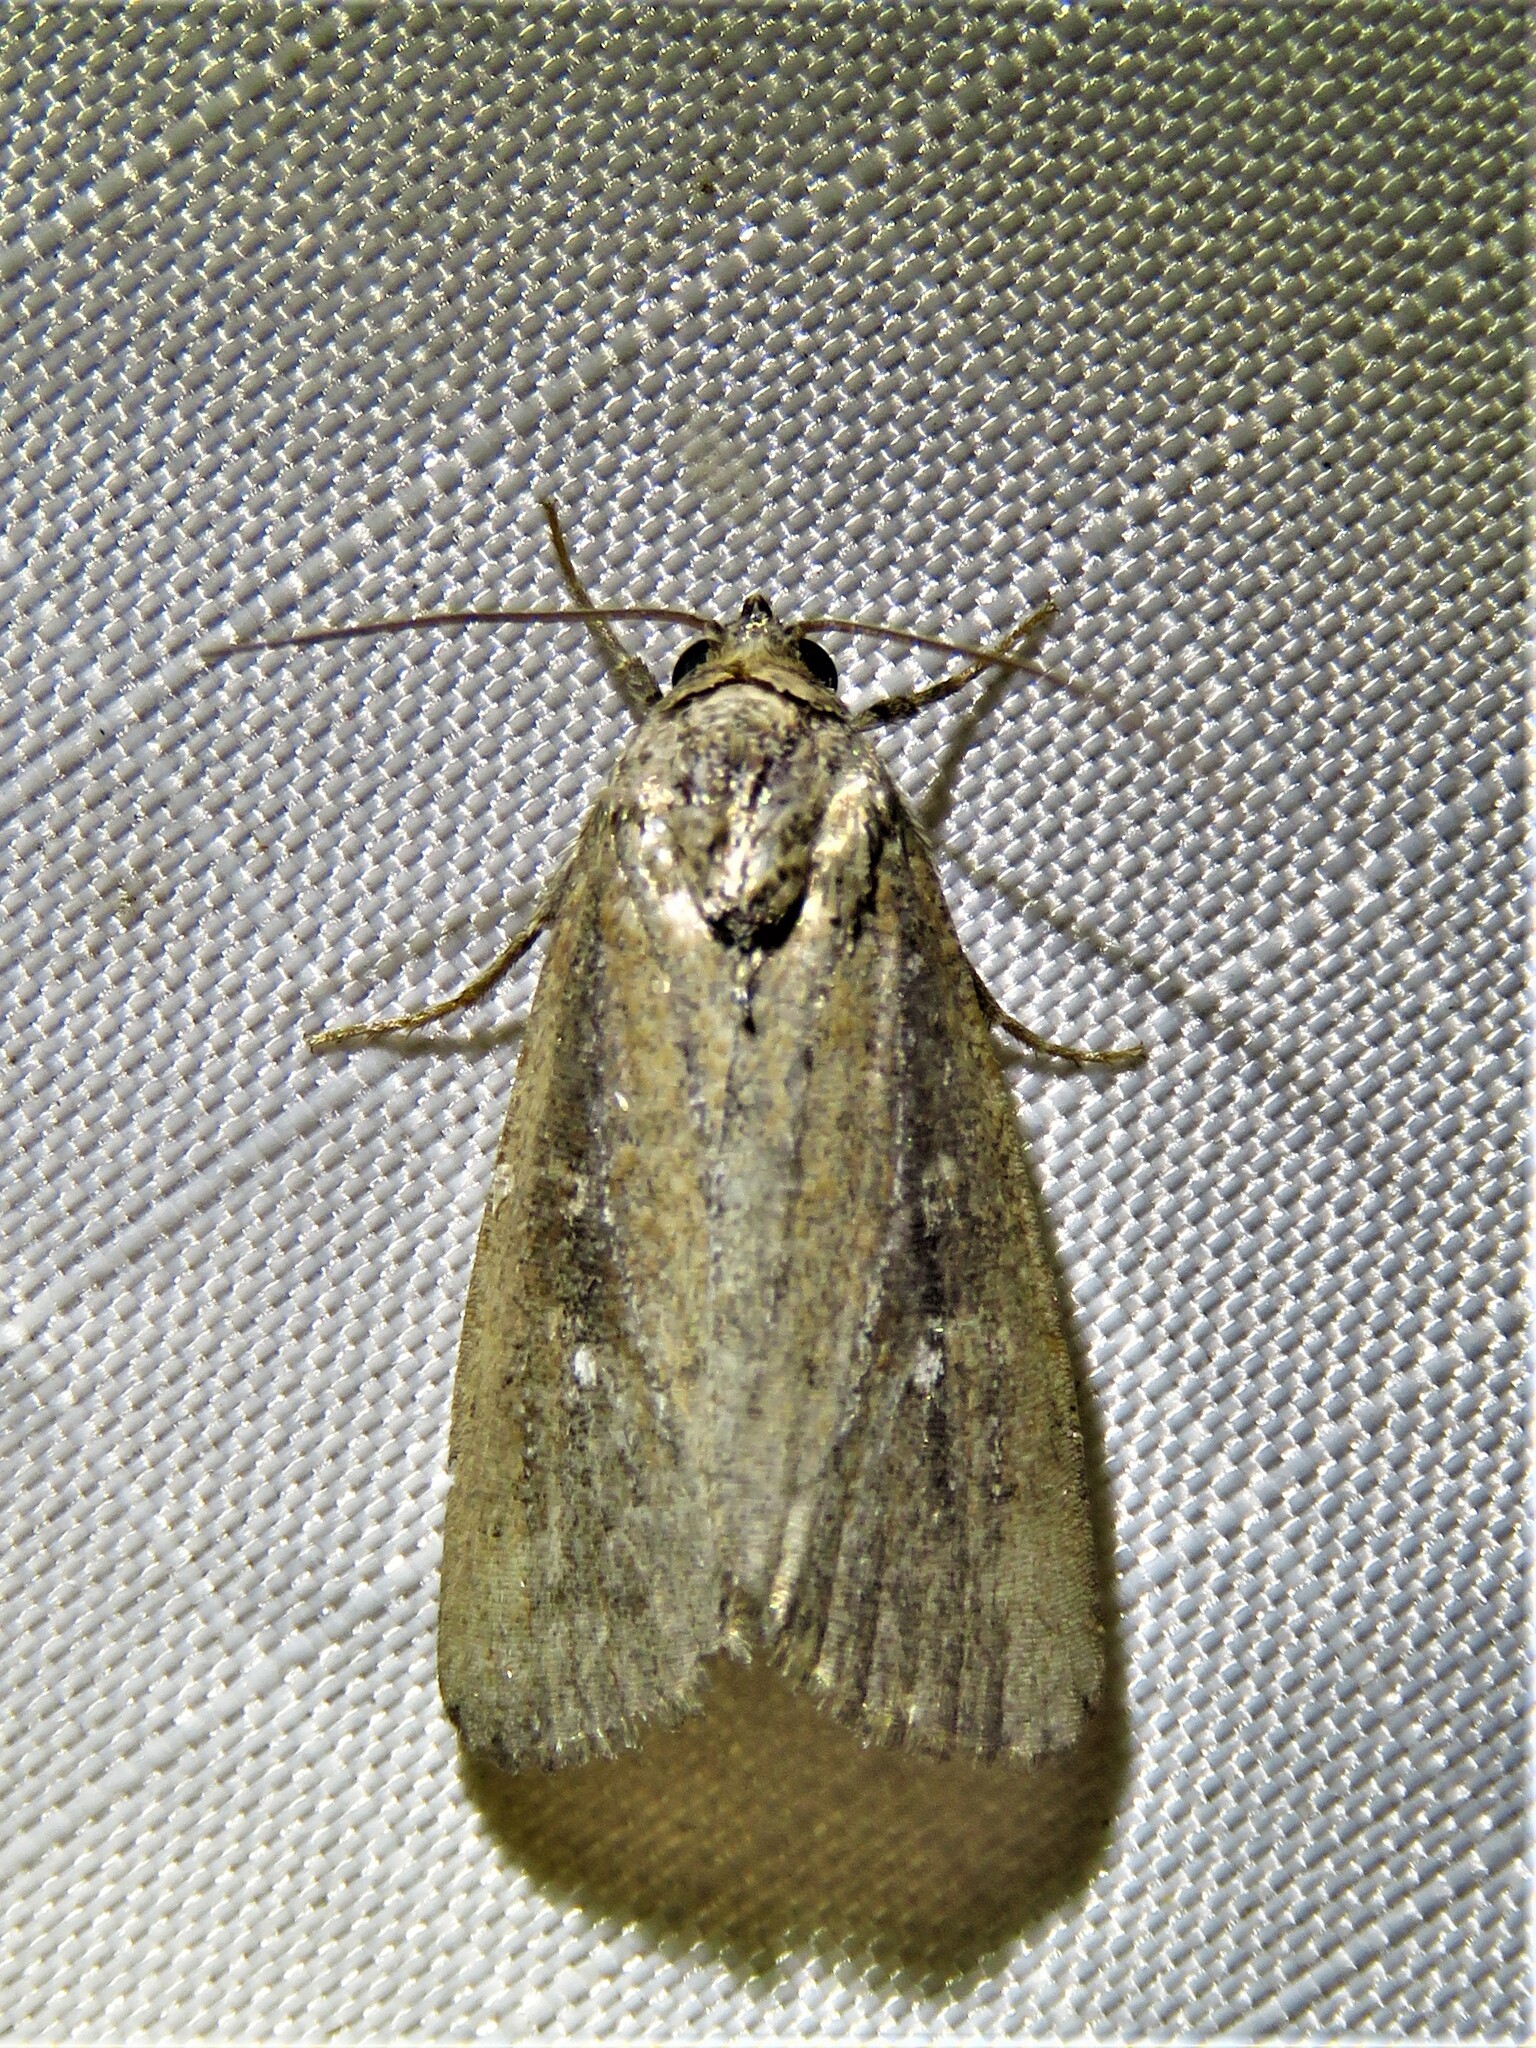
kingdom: Animalia
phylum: Arthropoda
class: Insecta
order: Lepidoptera
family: Noctuidae
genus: Condica
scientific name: Condica videns
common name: White-dotted groundling
